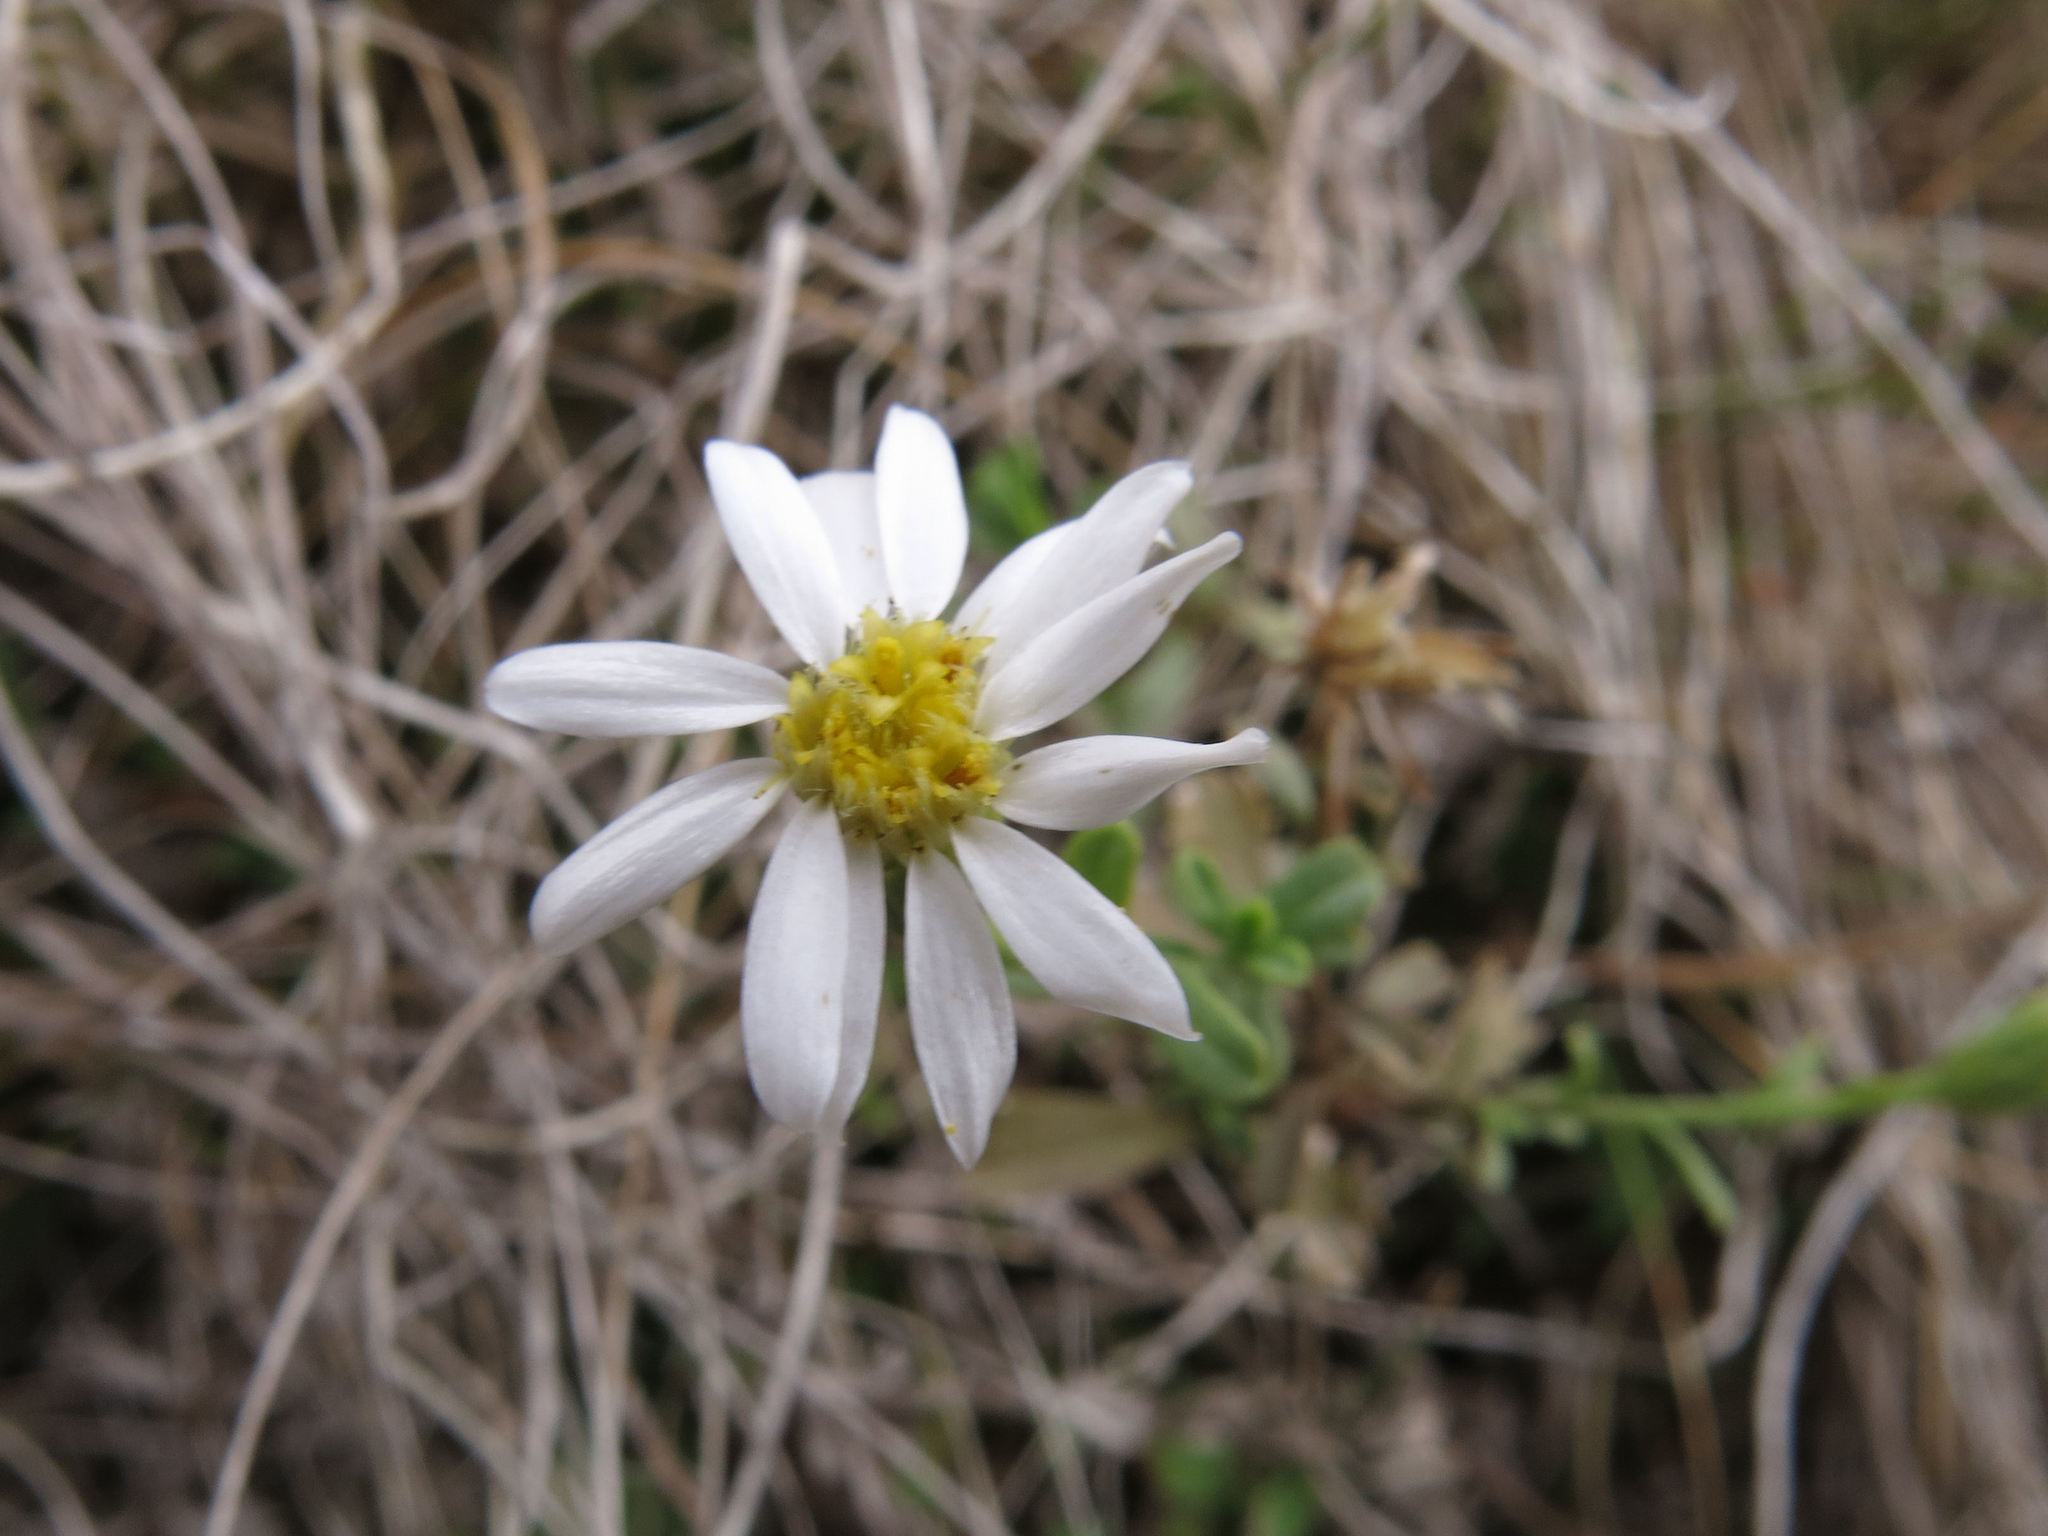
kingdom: Plantae
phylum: Tracheophyta
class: Magnoliopsida
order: Asterales
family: Asteraceae
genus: Vittadinia
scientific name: Vittadinia australis
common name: White fuzzweed
